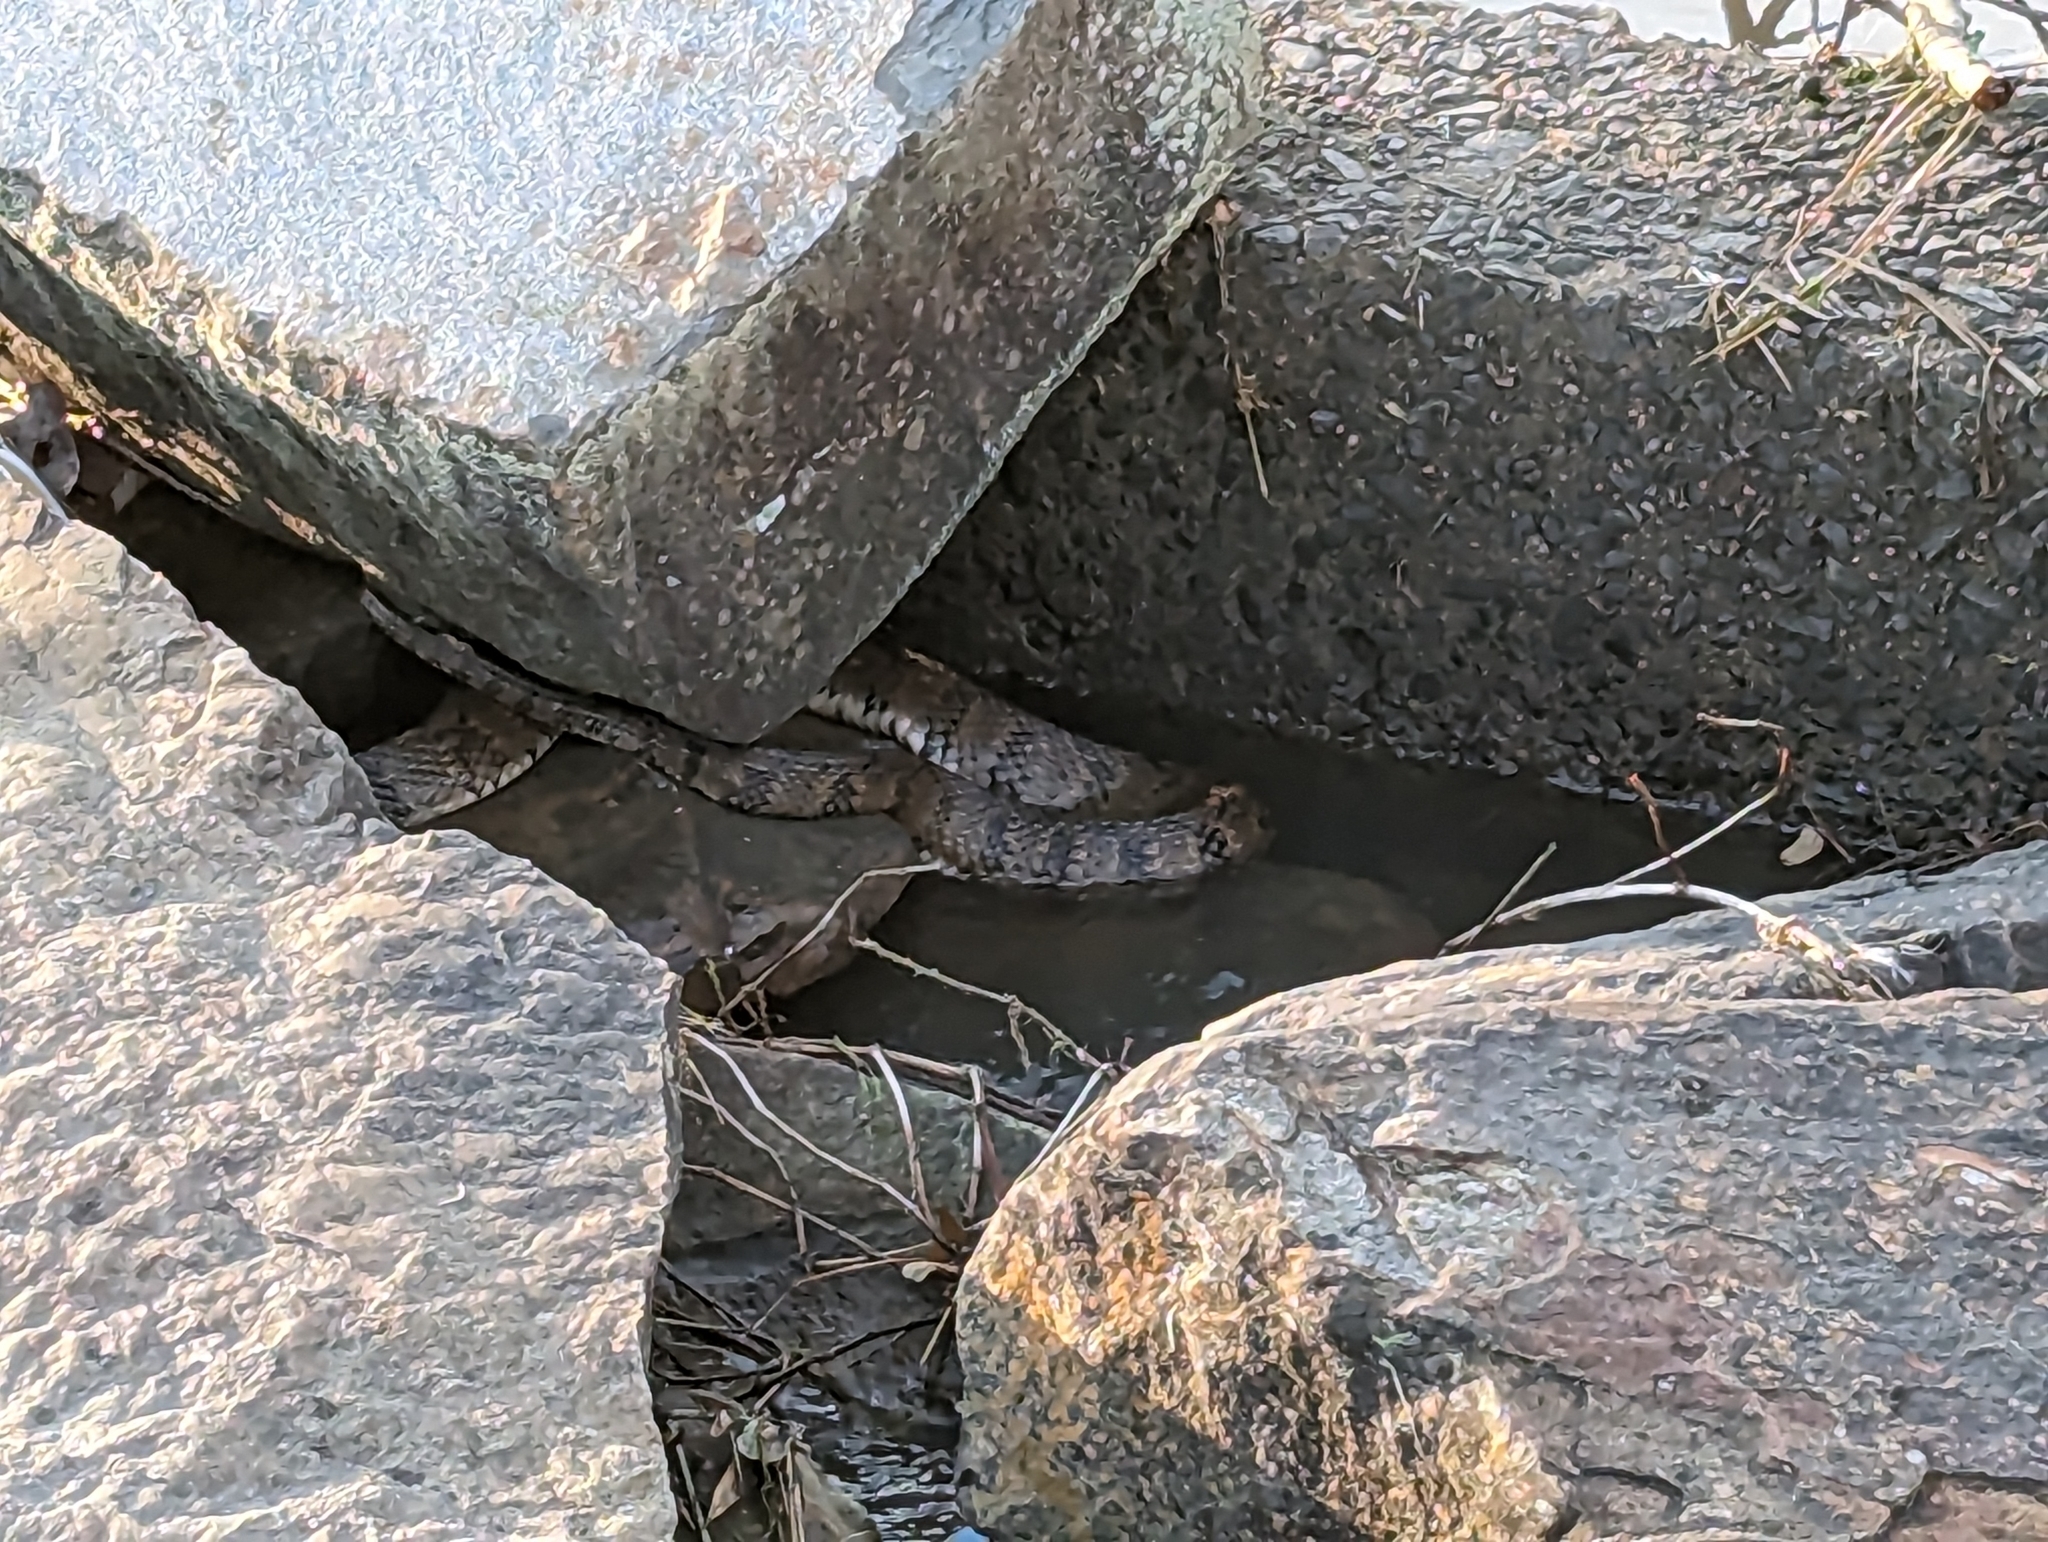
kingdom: Animalia
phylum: Chordata
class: Squamata
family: Colubridae
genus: Nerodia
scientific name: Nerodia rhombifer
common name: Diamondback water snake
